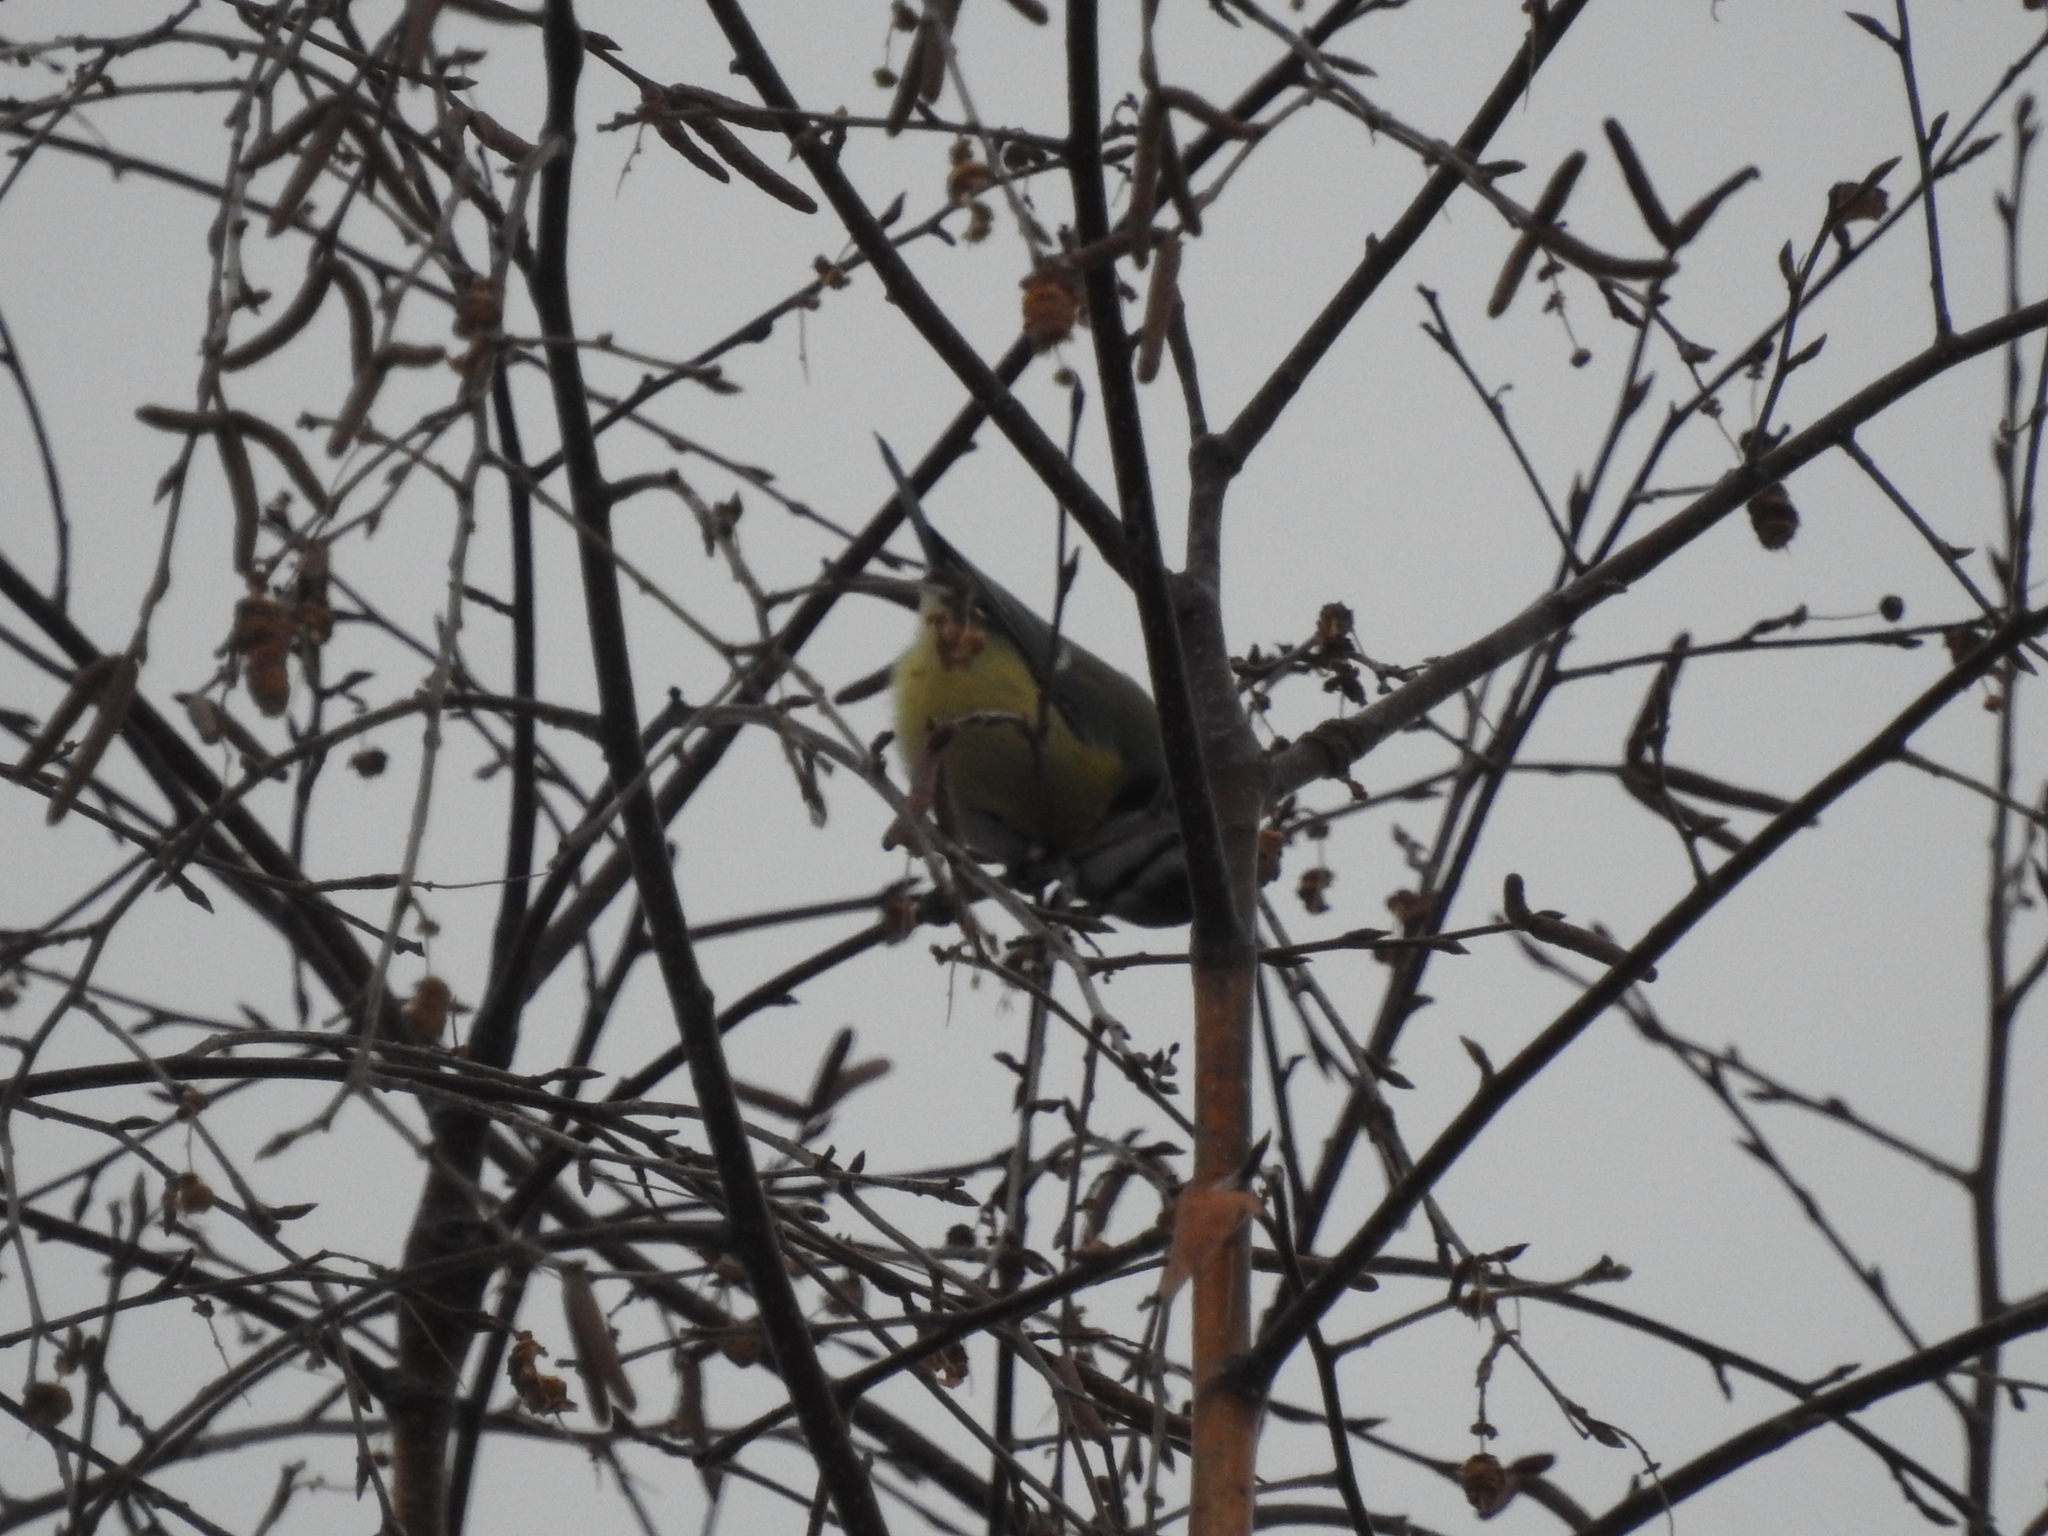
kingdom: Animalia
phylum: Chordata
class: Aves
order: Passeriformes
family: Paridae
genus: Cyanistes
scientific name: Cyanistes caeruleus
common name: Eurasian blue tit
